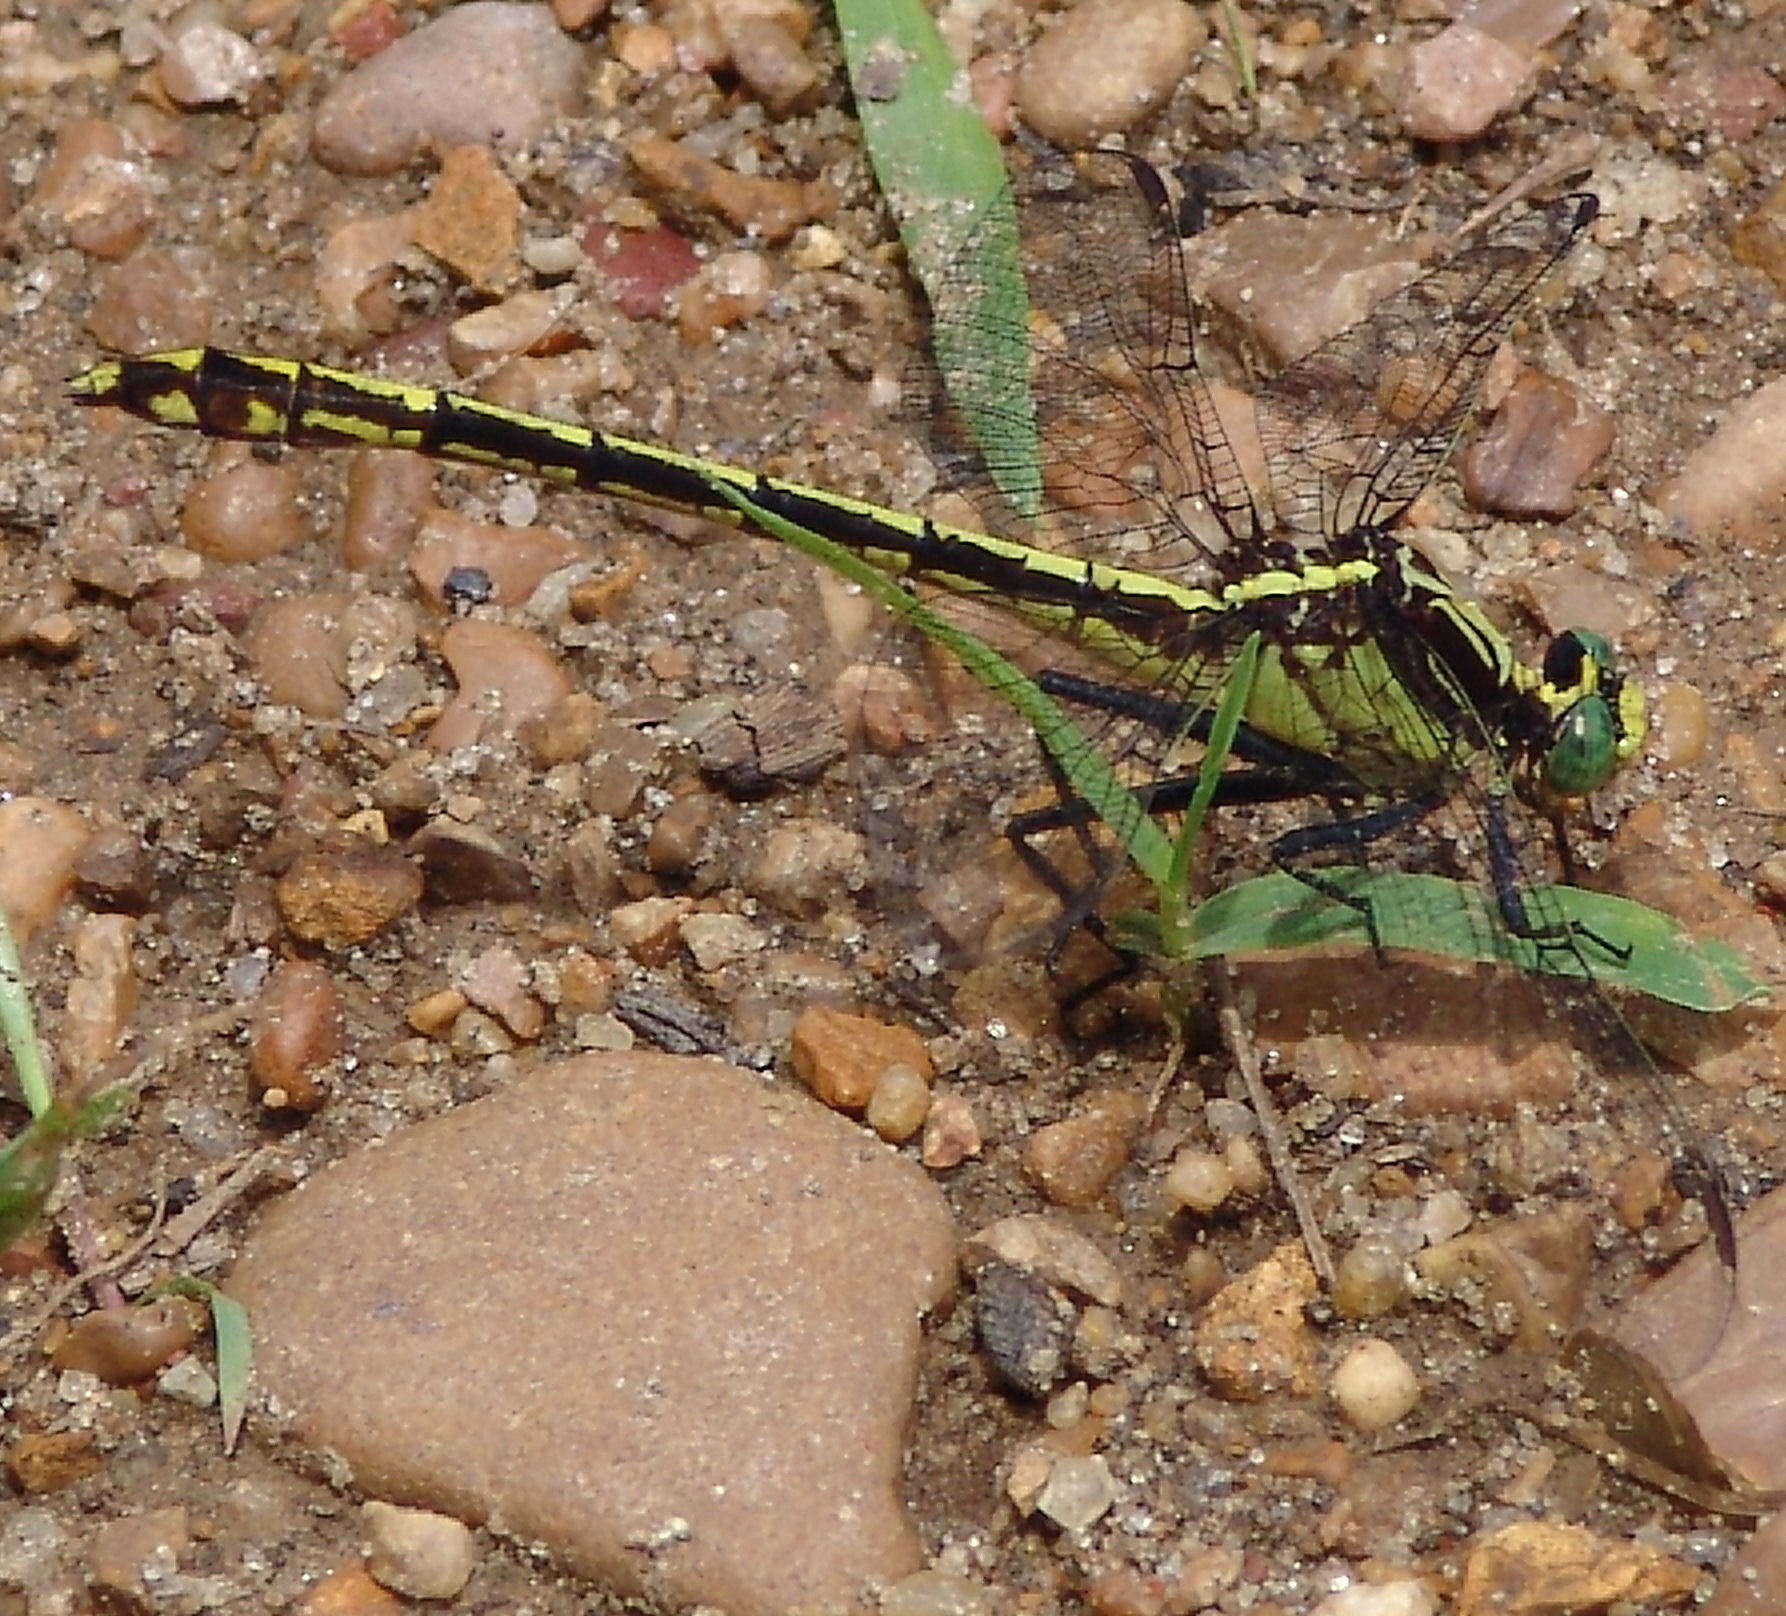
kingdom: Animalia
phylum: Arthropoda
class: Insecta
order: Odonata
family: Gomphidae
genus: Dromogomphus
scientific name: Dromogomphus spinosus
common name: Black-shouldered spinyleg
